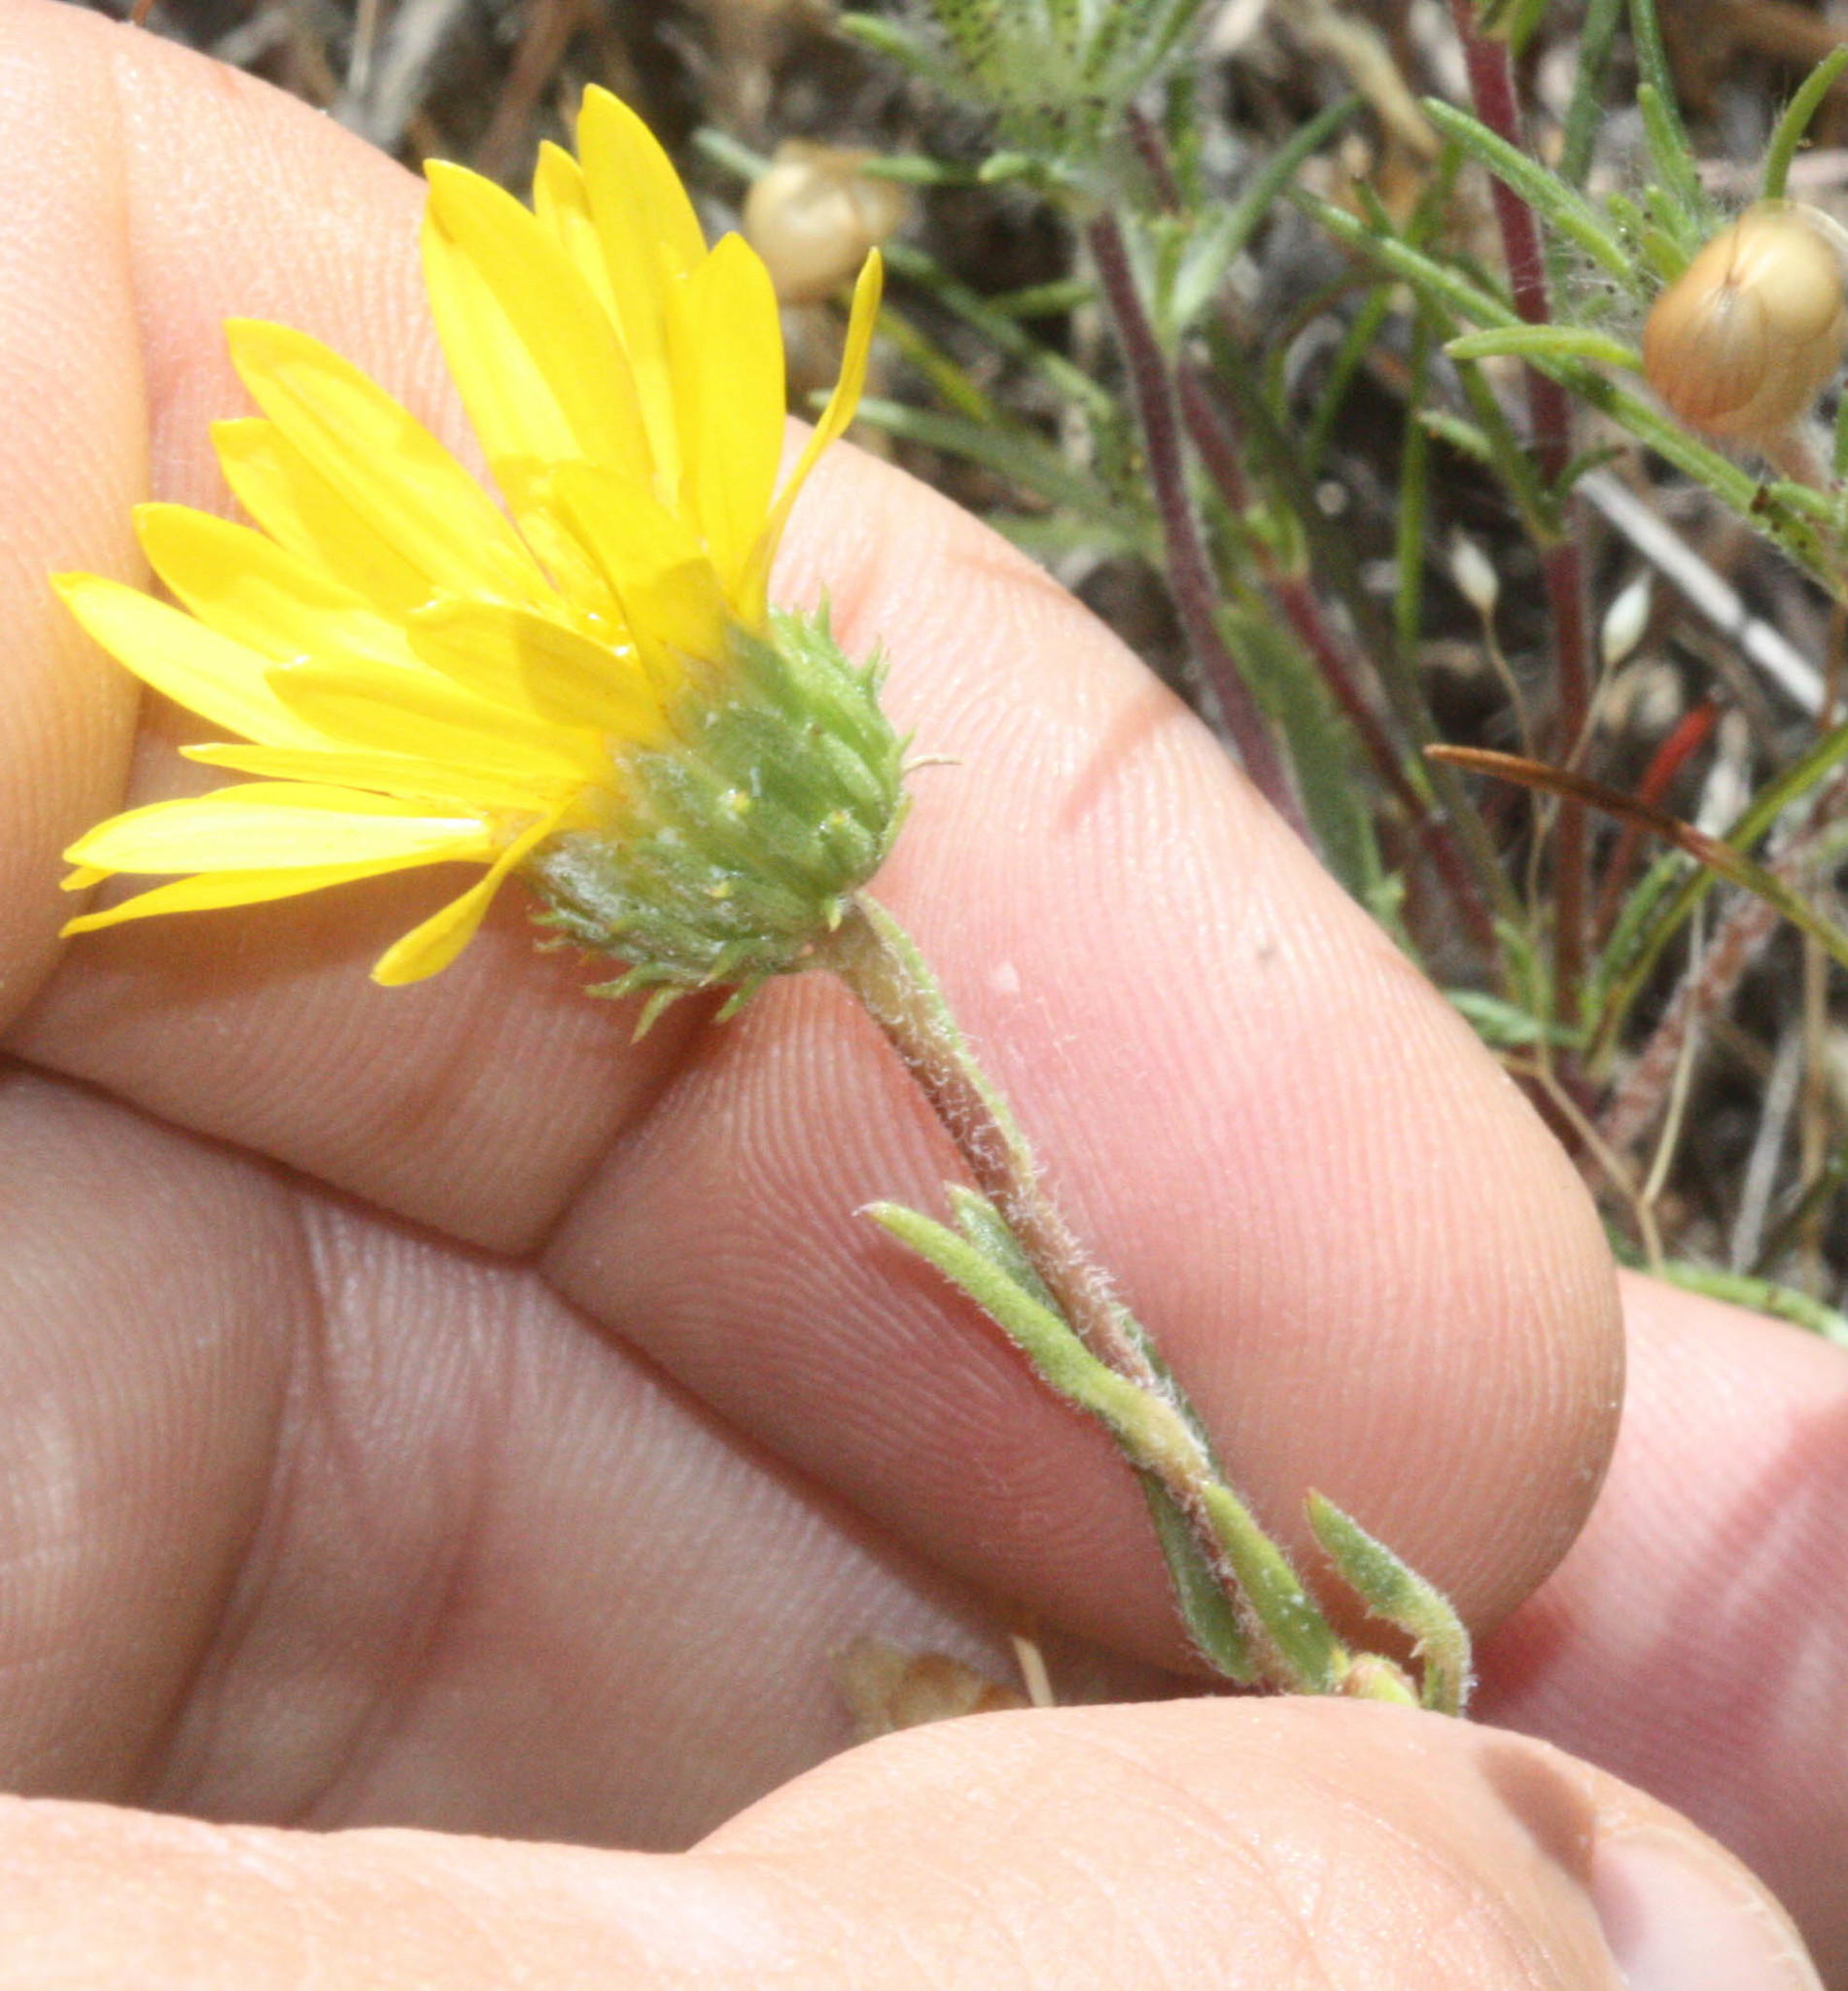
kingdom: Plantae
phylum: Tracheophyta
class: Magnoliopsida
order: Asterales
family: Asteraceae
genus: Grindelia
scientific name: Grindelia hirsutula
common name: Hairy gumweed
